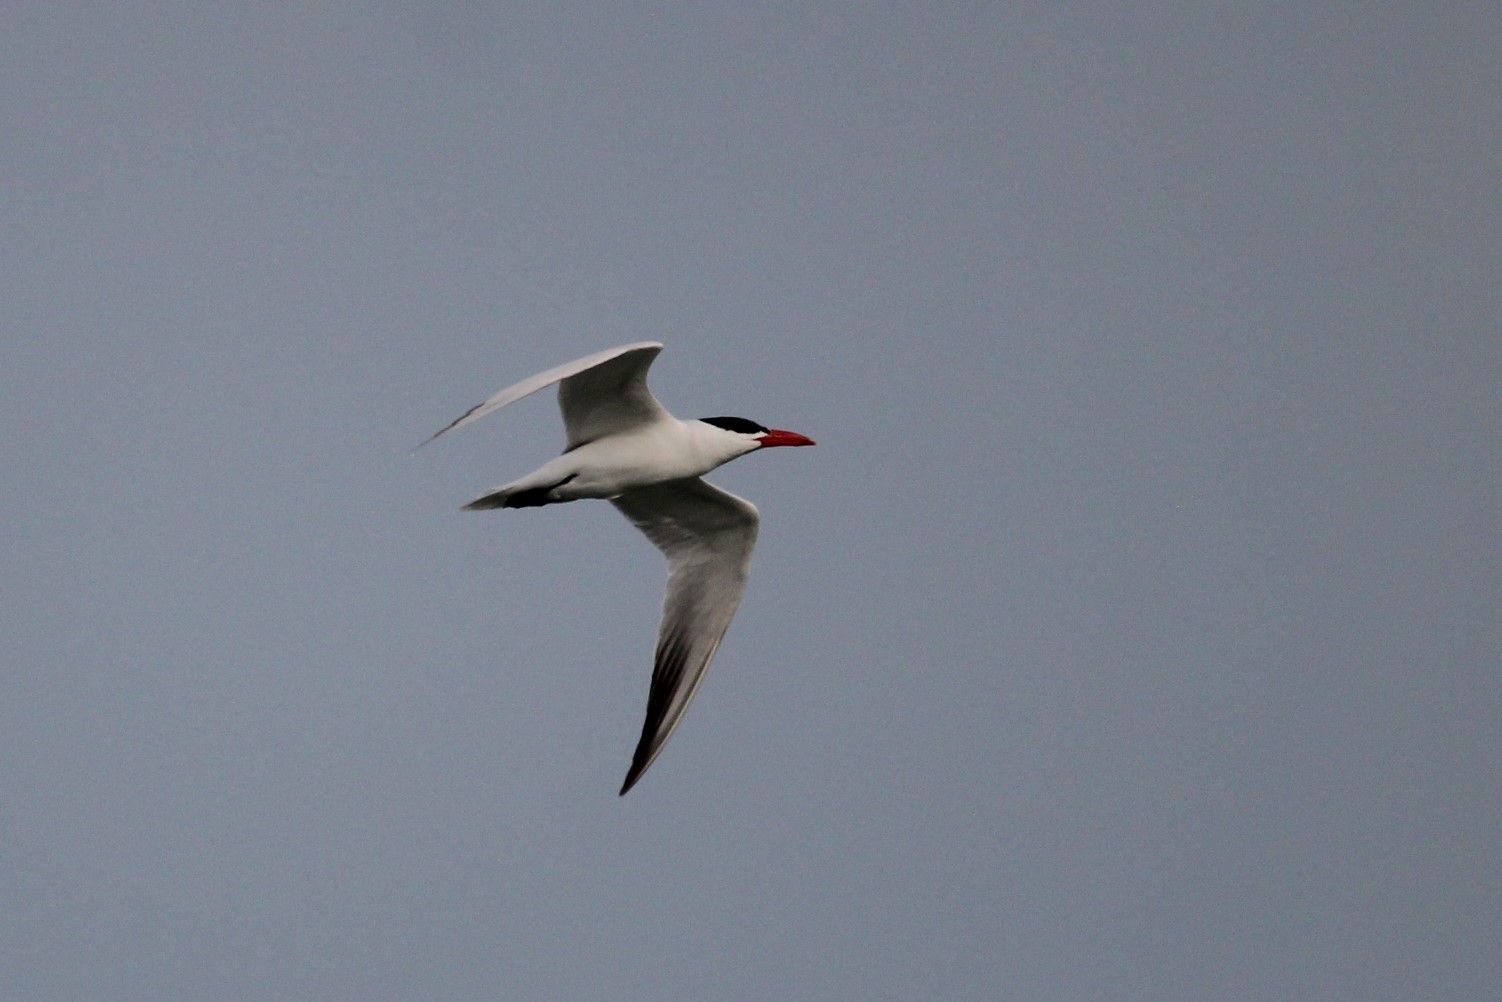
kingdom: Animalia
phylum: Chordata
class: Aves
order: Charadriiformes
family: Laridae
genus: Hydroprogne
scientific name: Hydroprogne caspia
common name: Caspian tern
